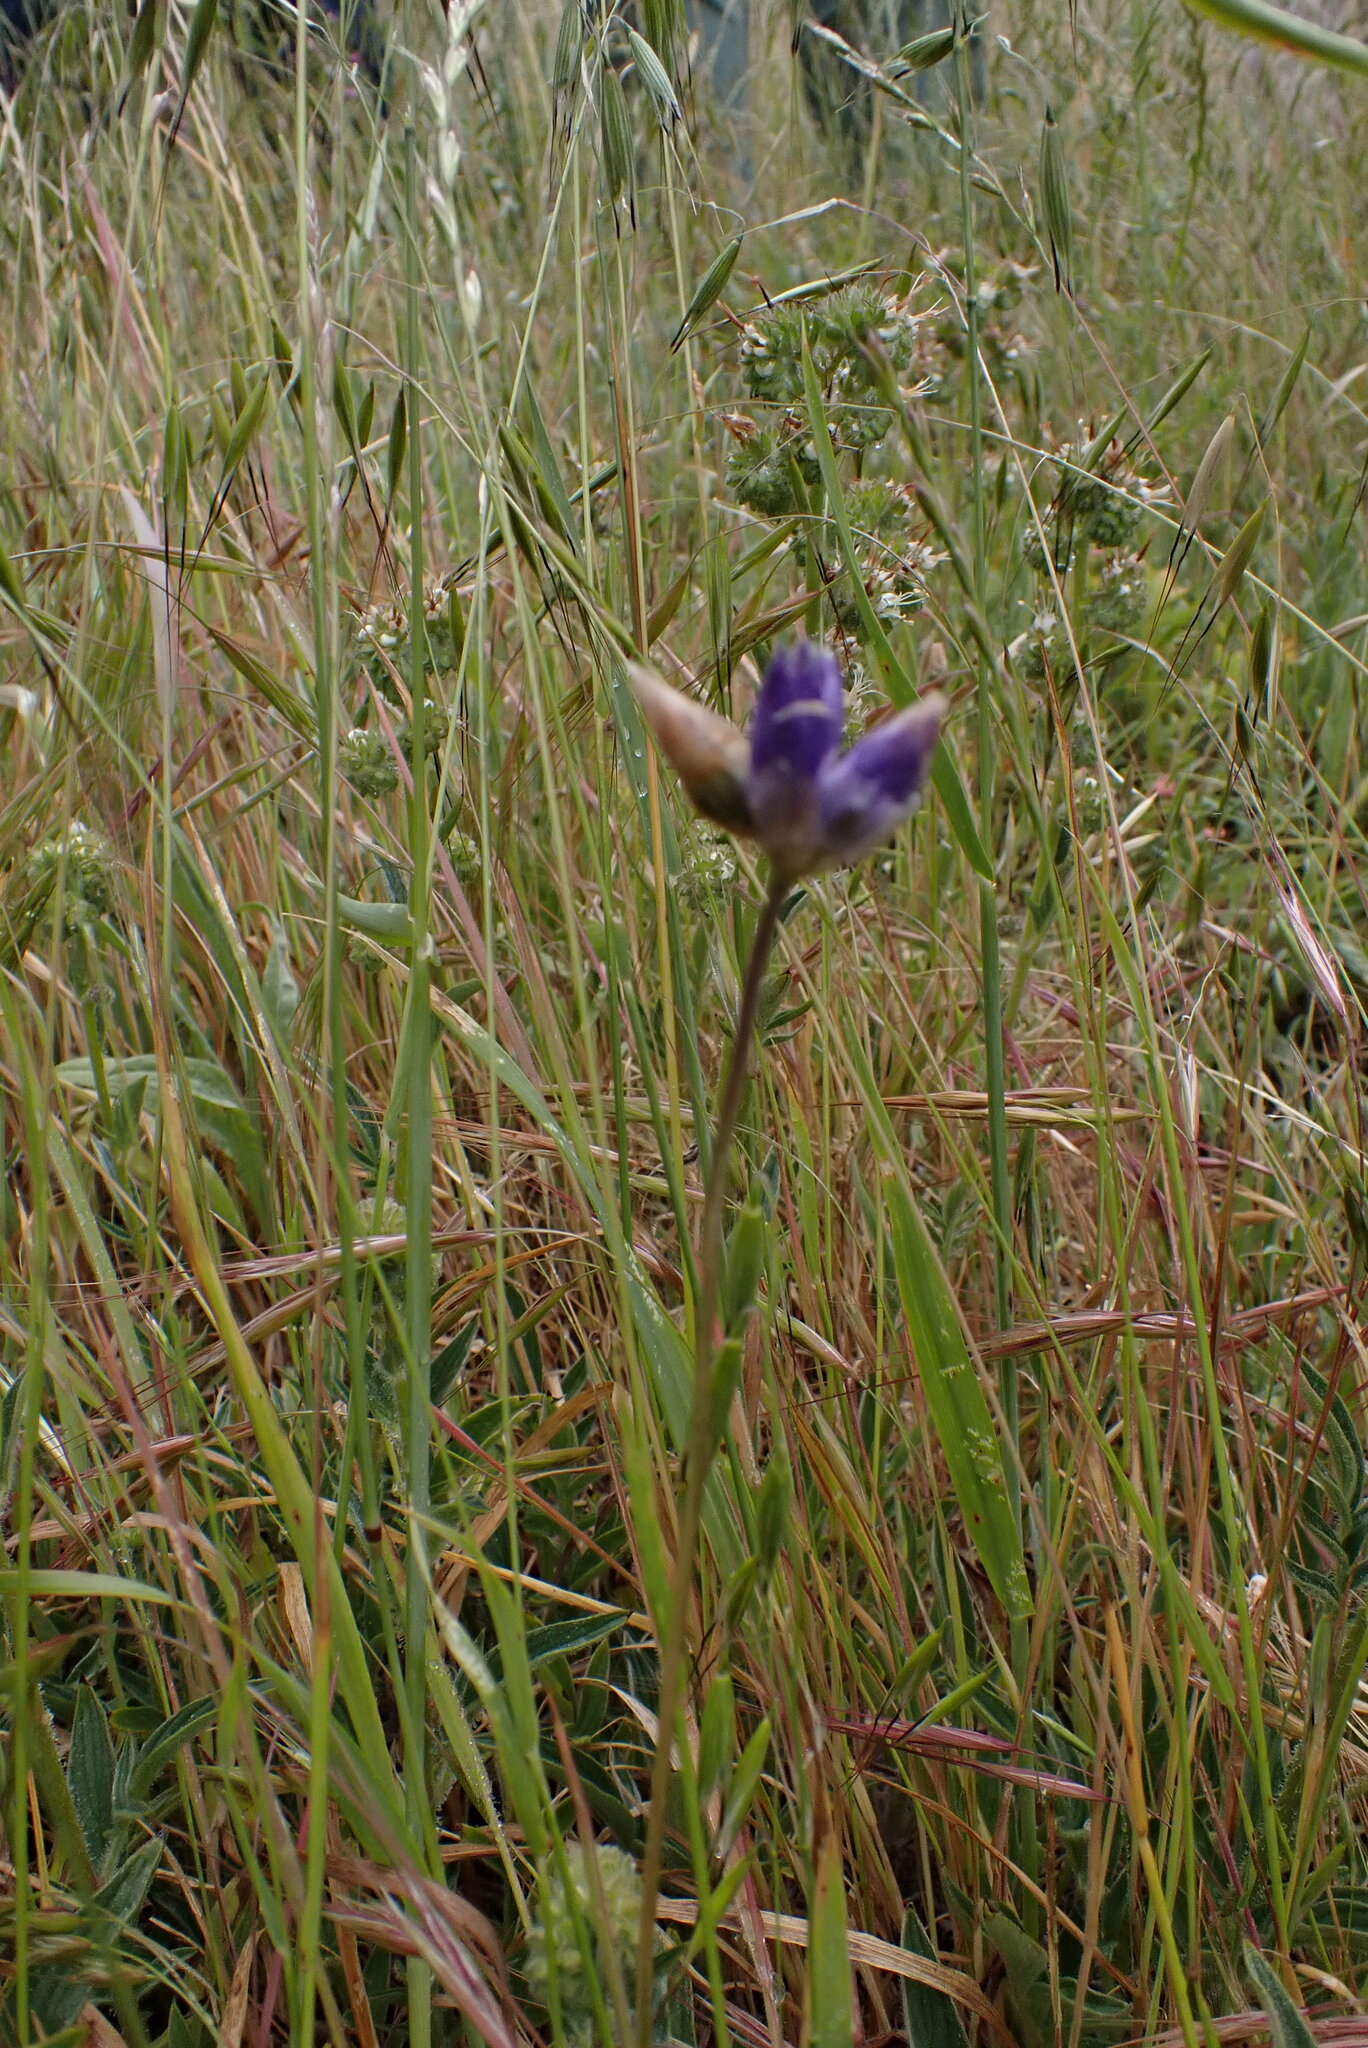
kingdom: Plantae
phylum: Tracheophyta
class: Liliopsida
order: Asparagales
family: Asparagaceae
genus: Dipterostemon
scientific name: Dipterostemon capitatus
